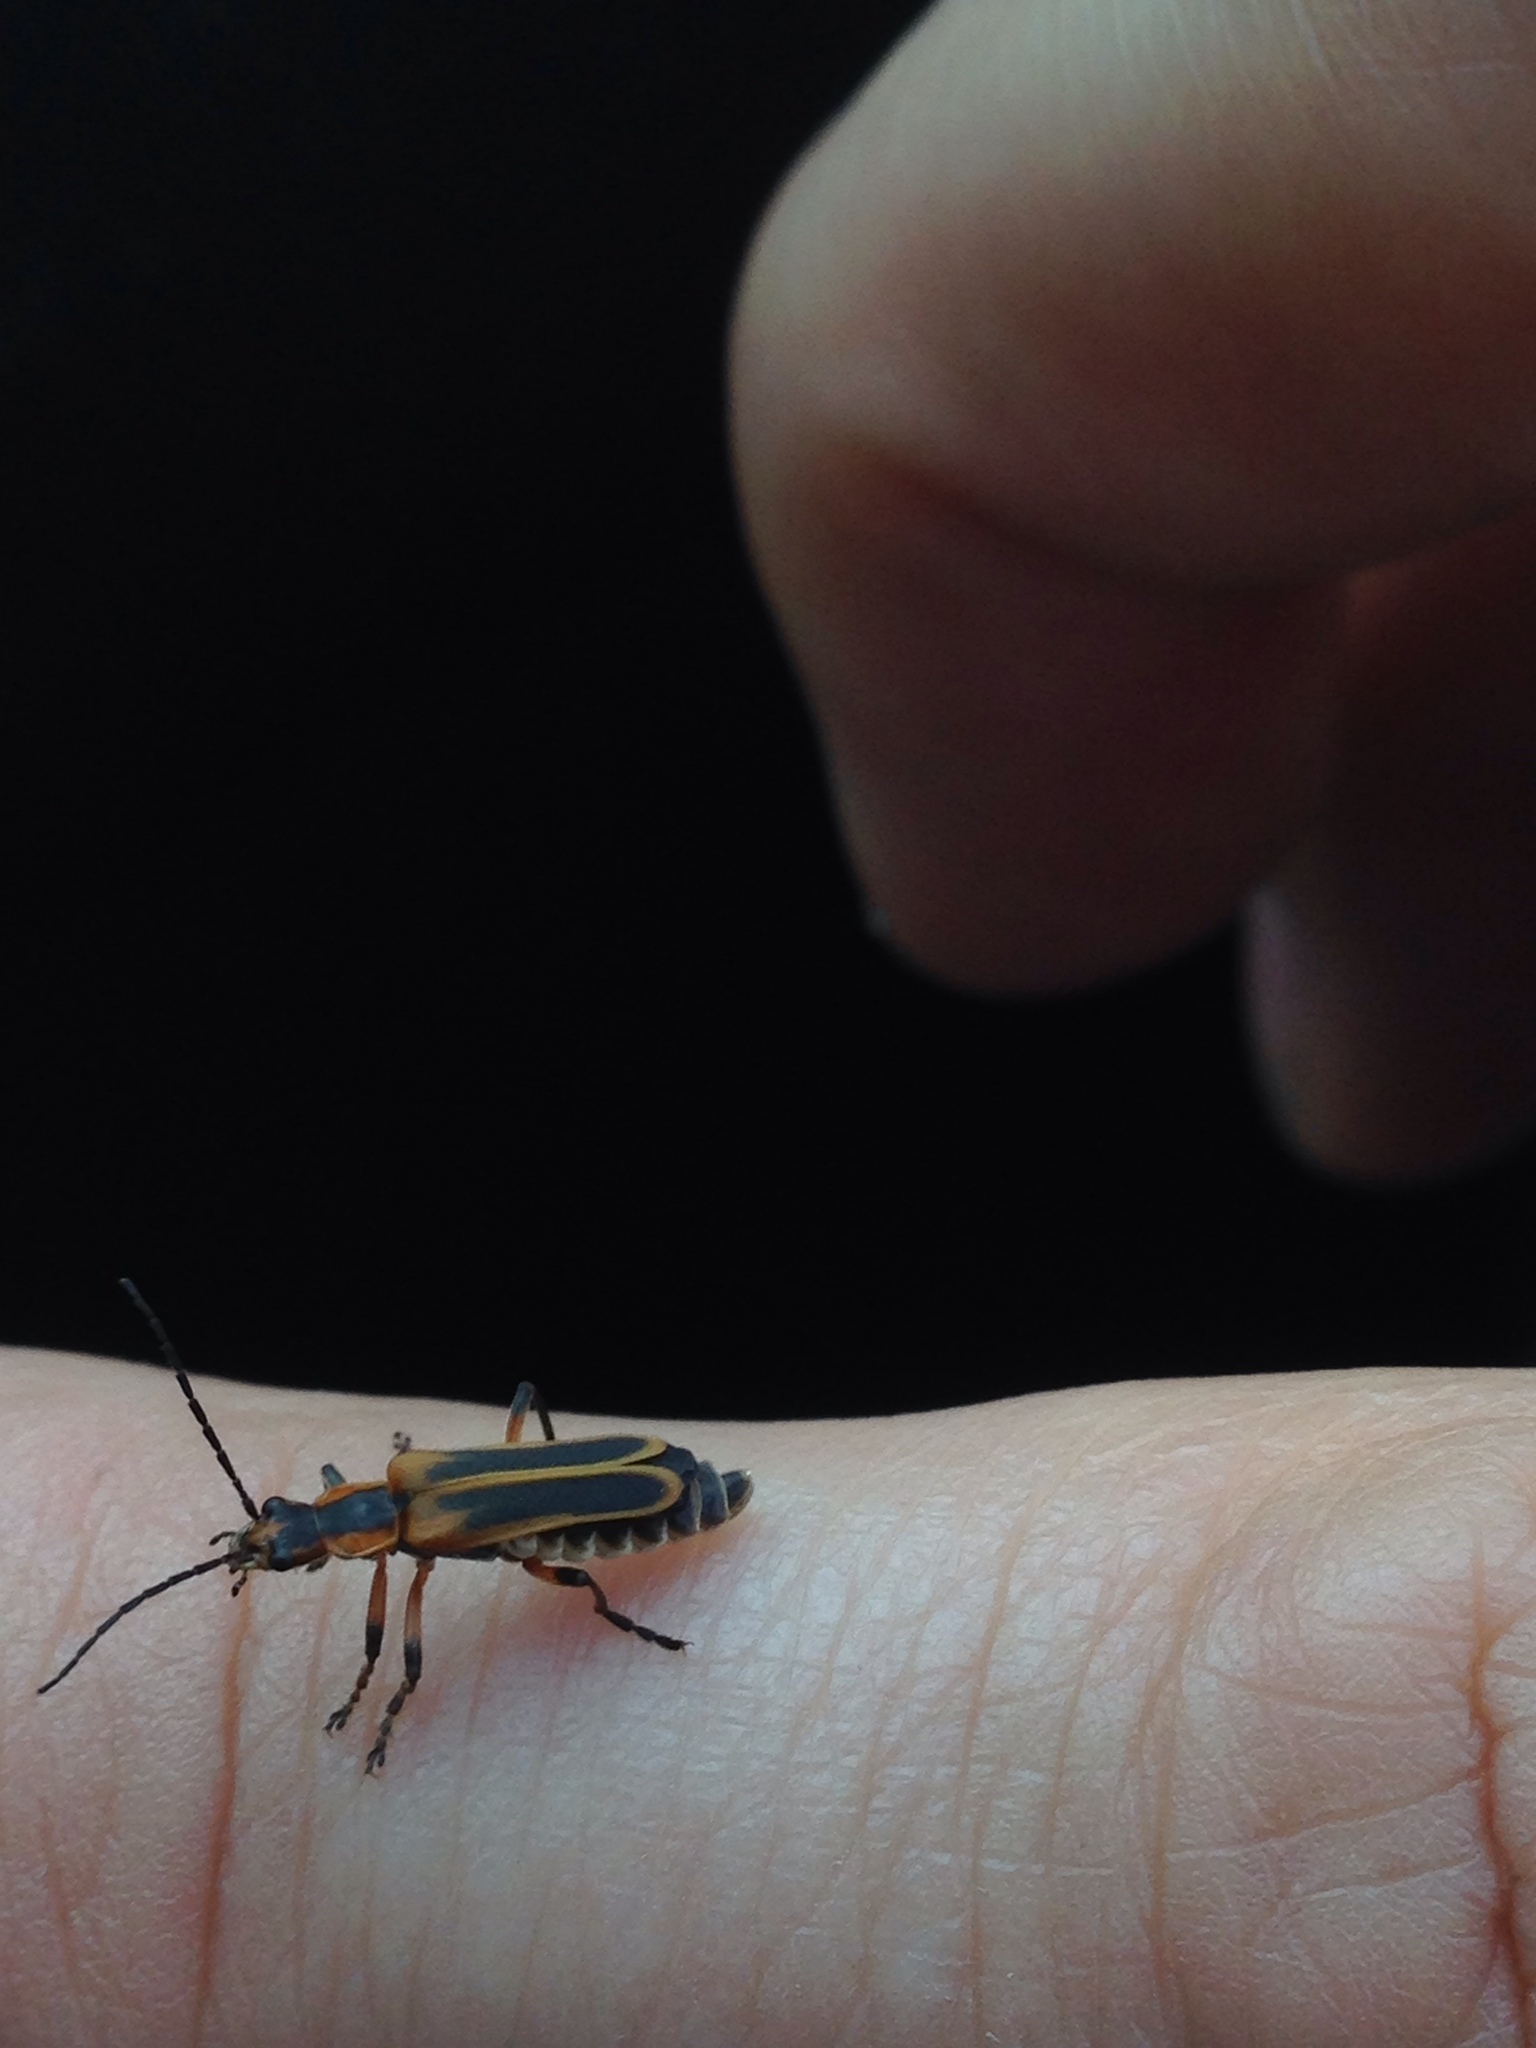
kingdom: Animalia
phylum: Arthropoda
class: Insecta
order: Coleoptera
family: Cantharidae
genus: Chauliognathus
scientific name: Chauliognathus marginatus
